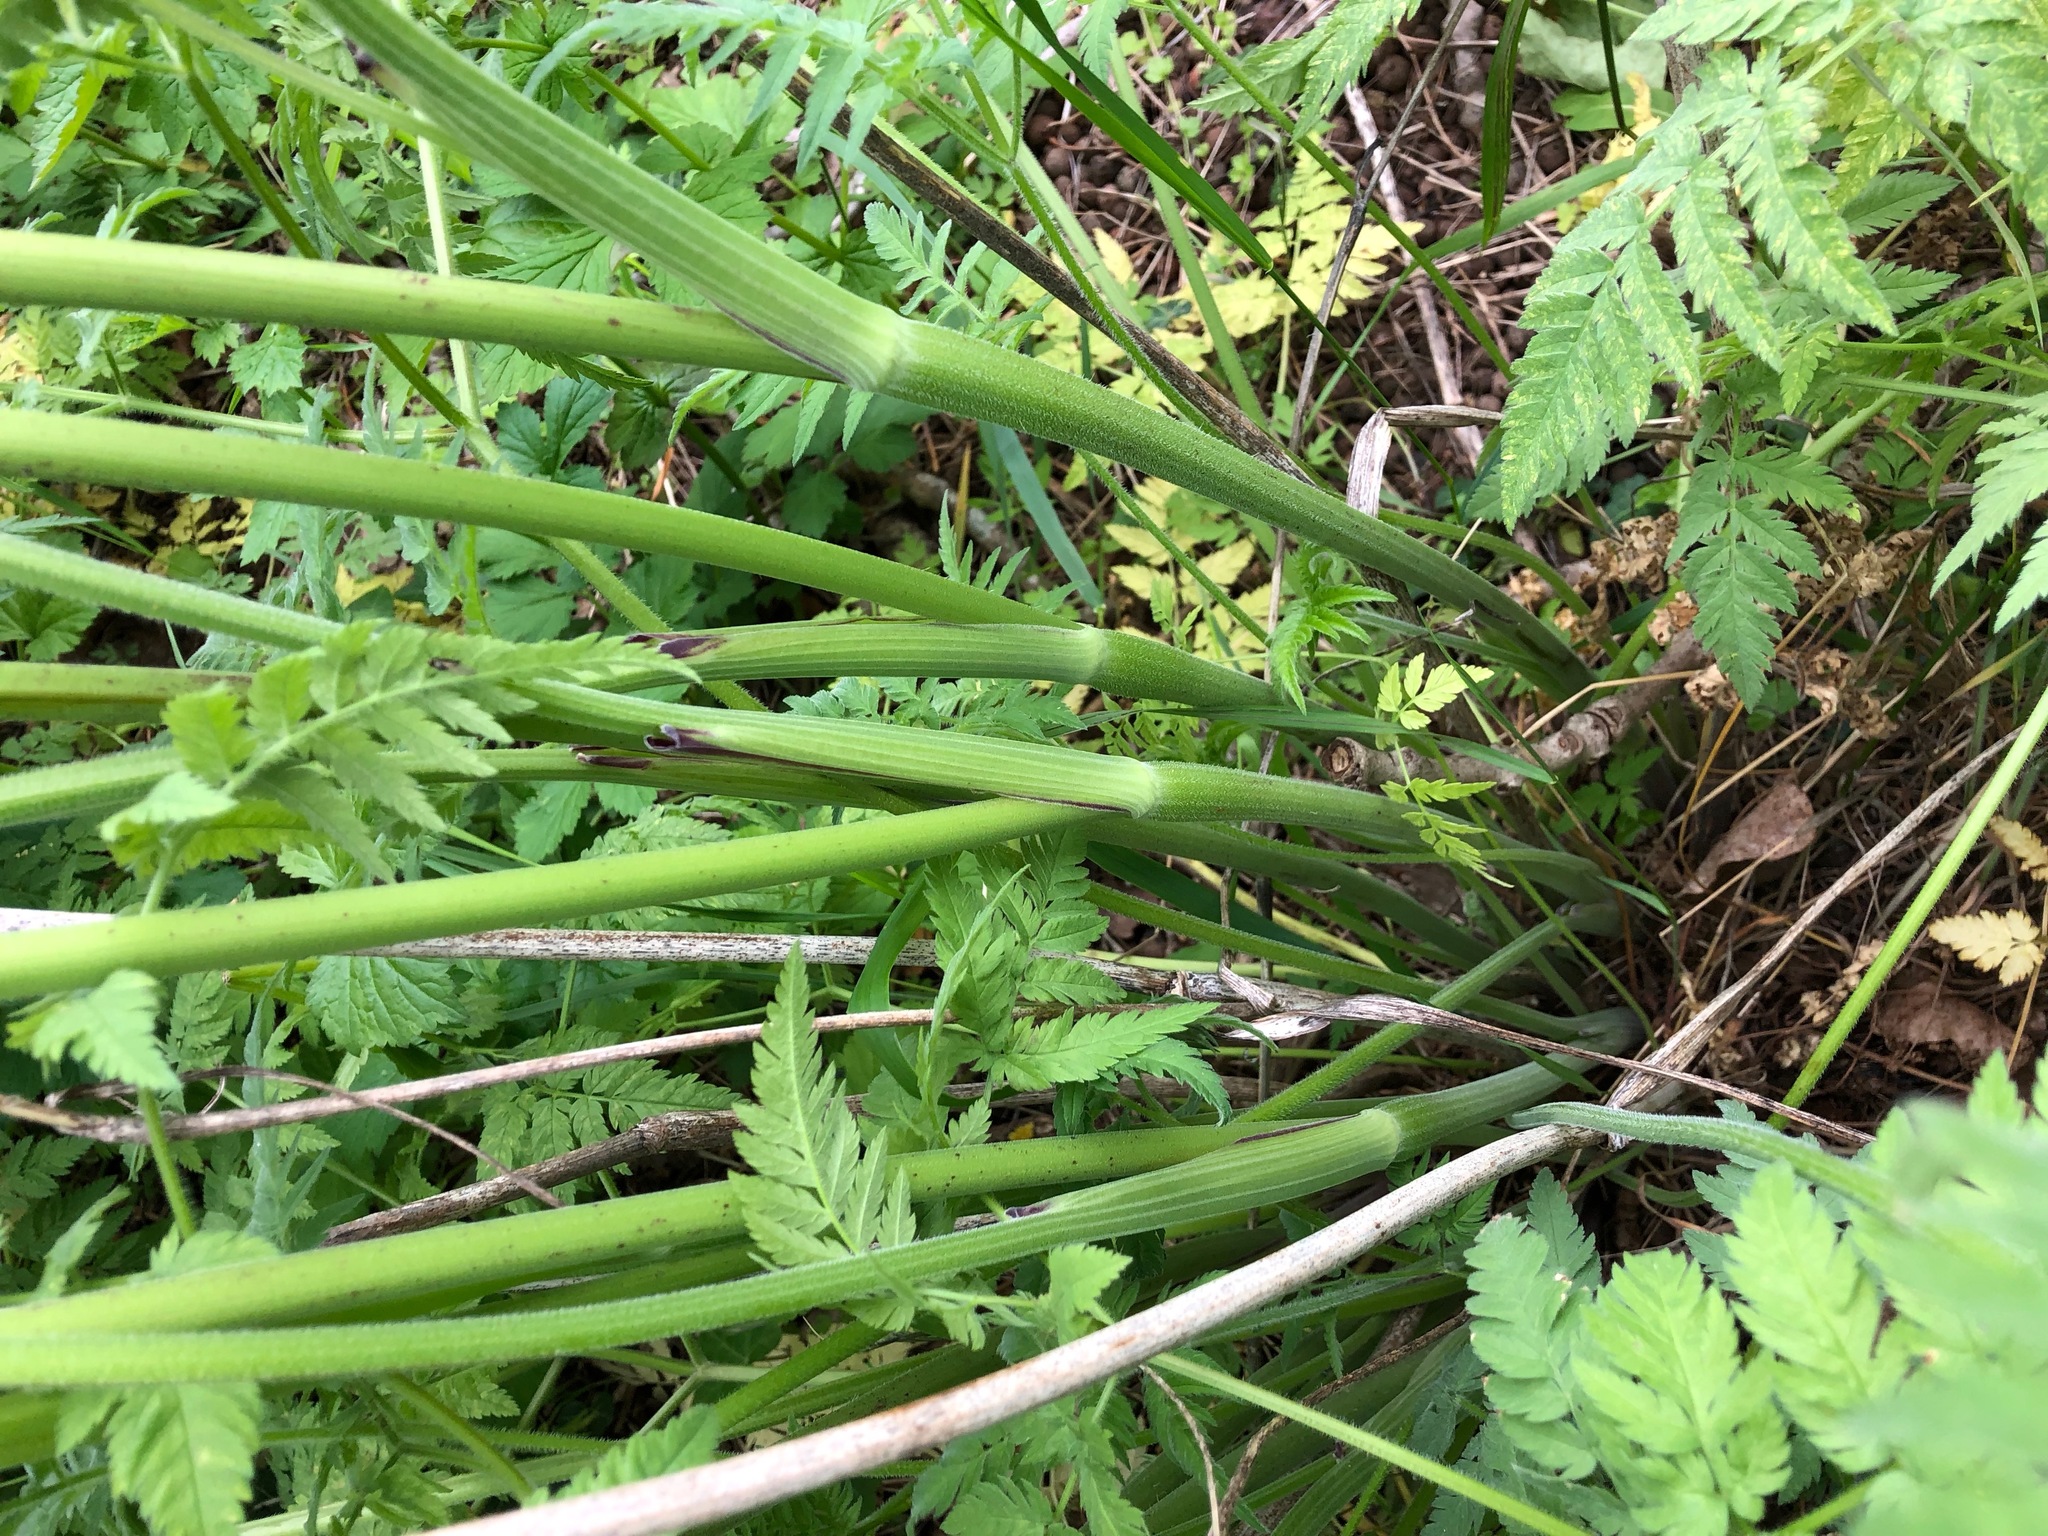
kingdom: Plantae
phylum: Tracheophyta
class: Magnoliopsida
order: Apiales
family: Apiaceae
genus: Chaerophyllum
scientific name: Chaerophyllum aureum
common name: Golden chervil
